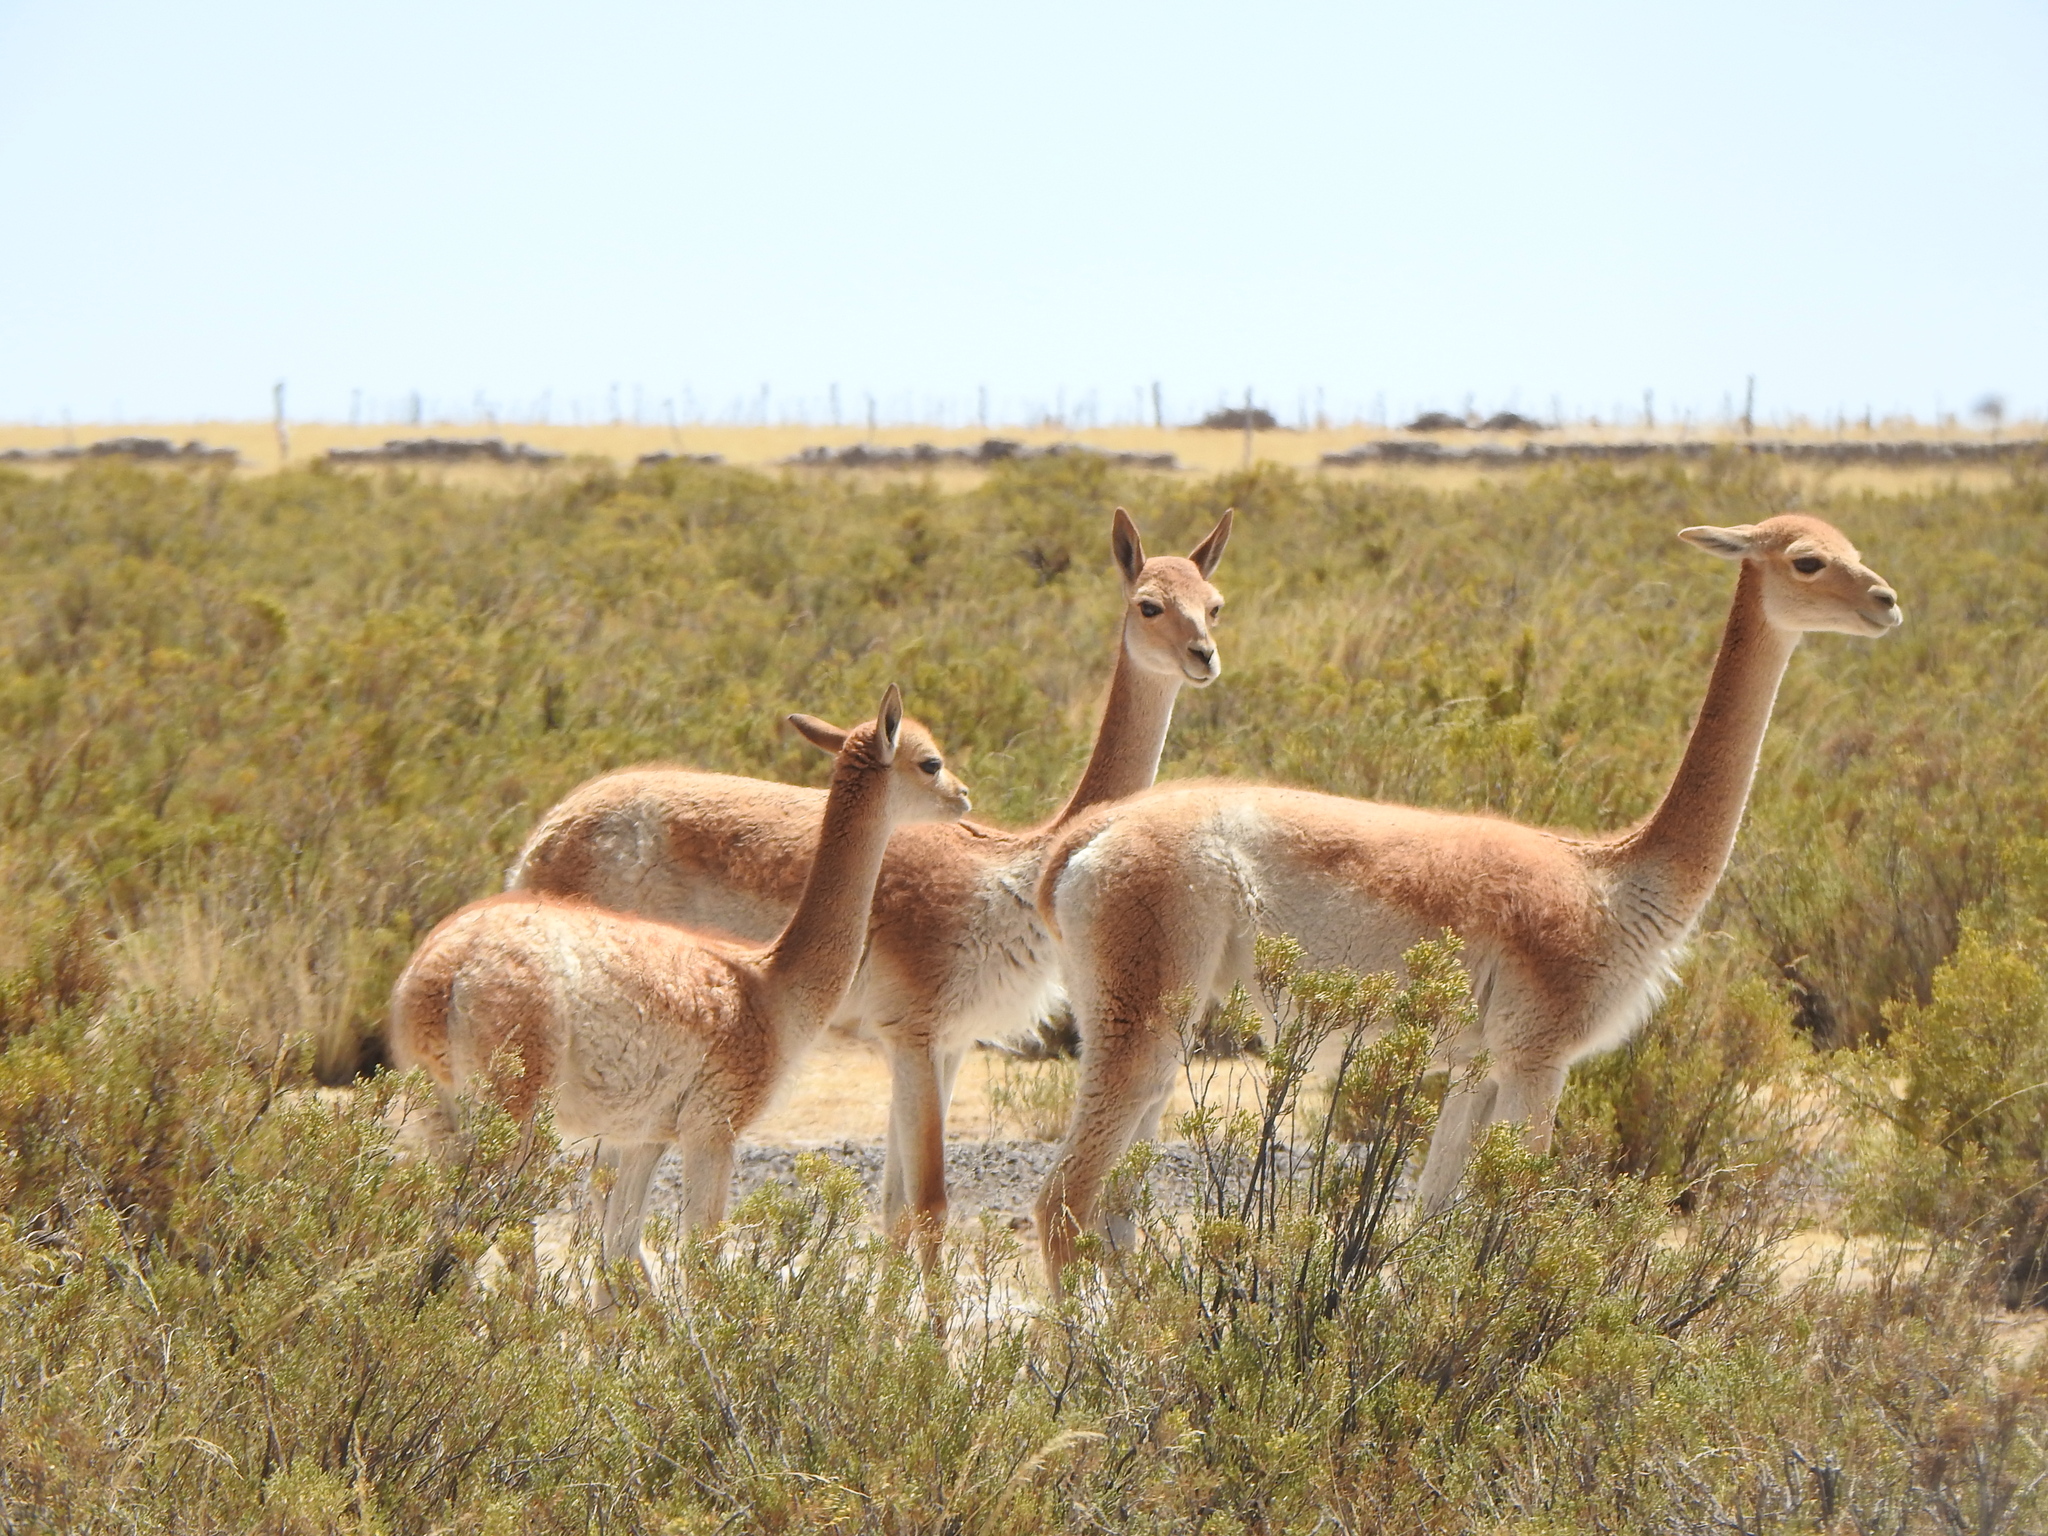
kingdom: Animalia
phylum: Chordata
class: Mammalia
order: Artiodactyla
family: Camelidae
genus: Vicugna
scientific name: Vicugna vicugna
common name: Vicugna
